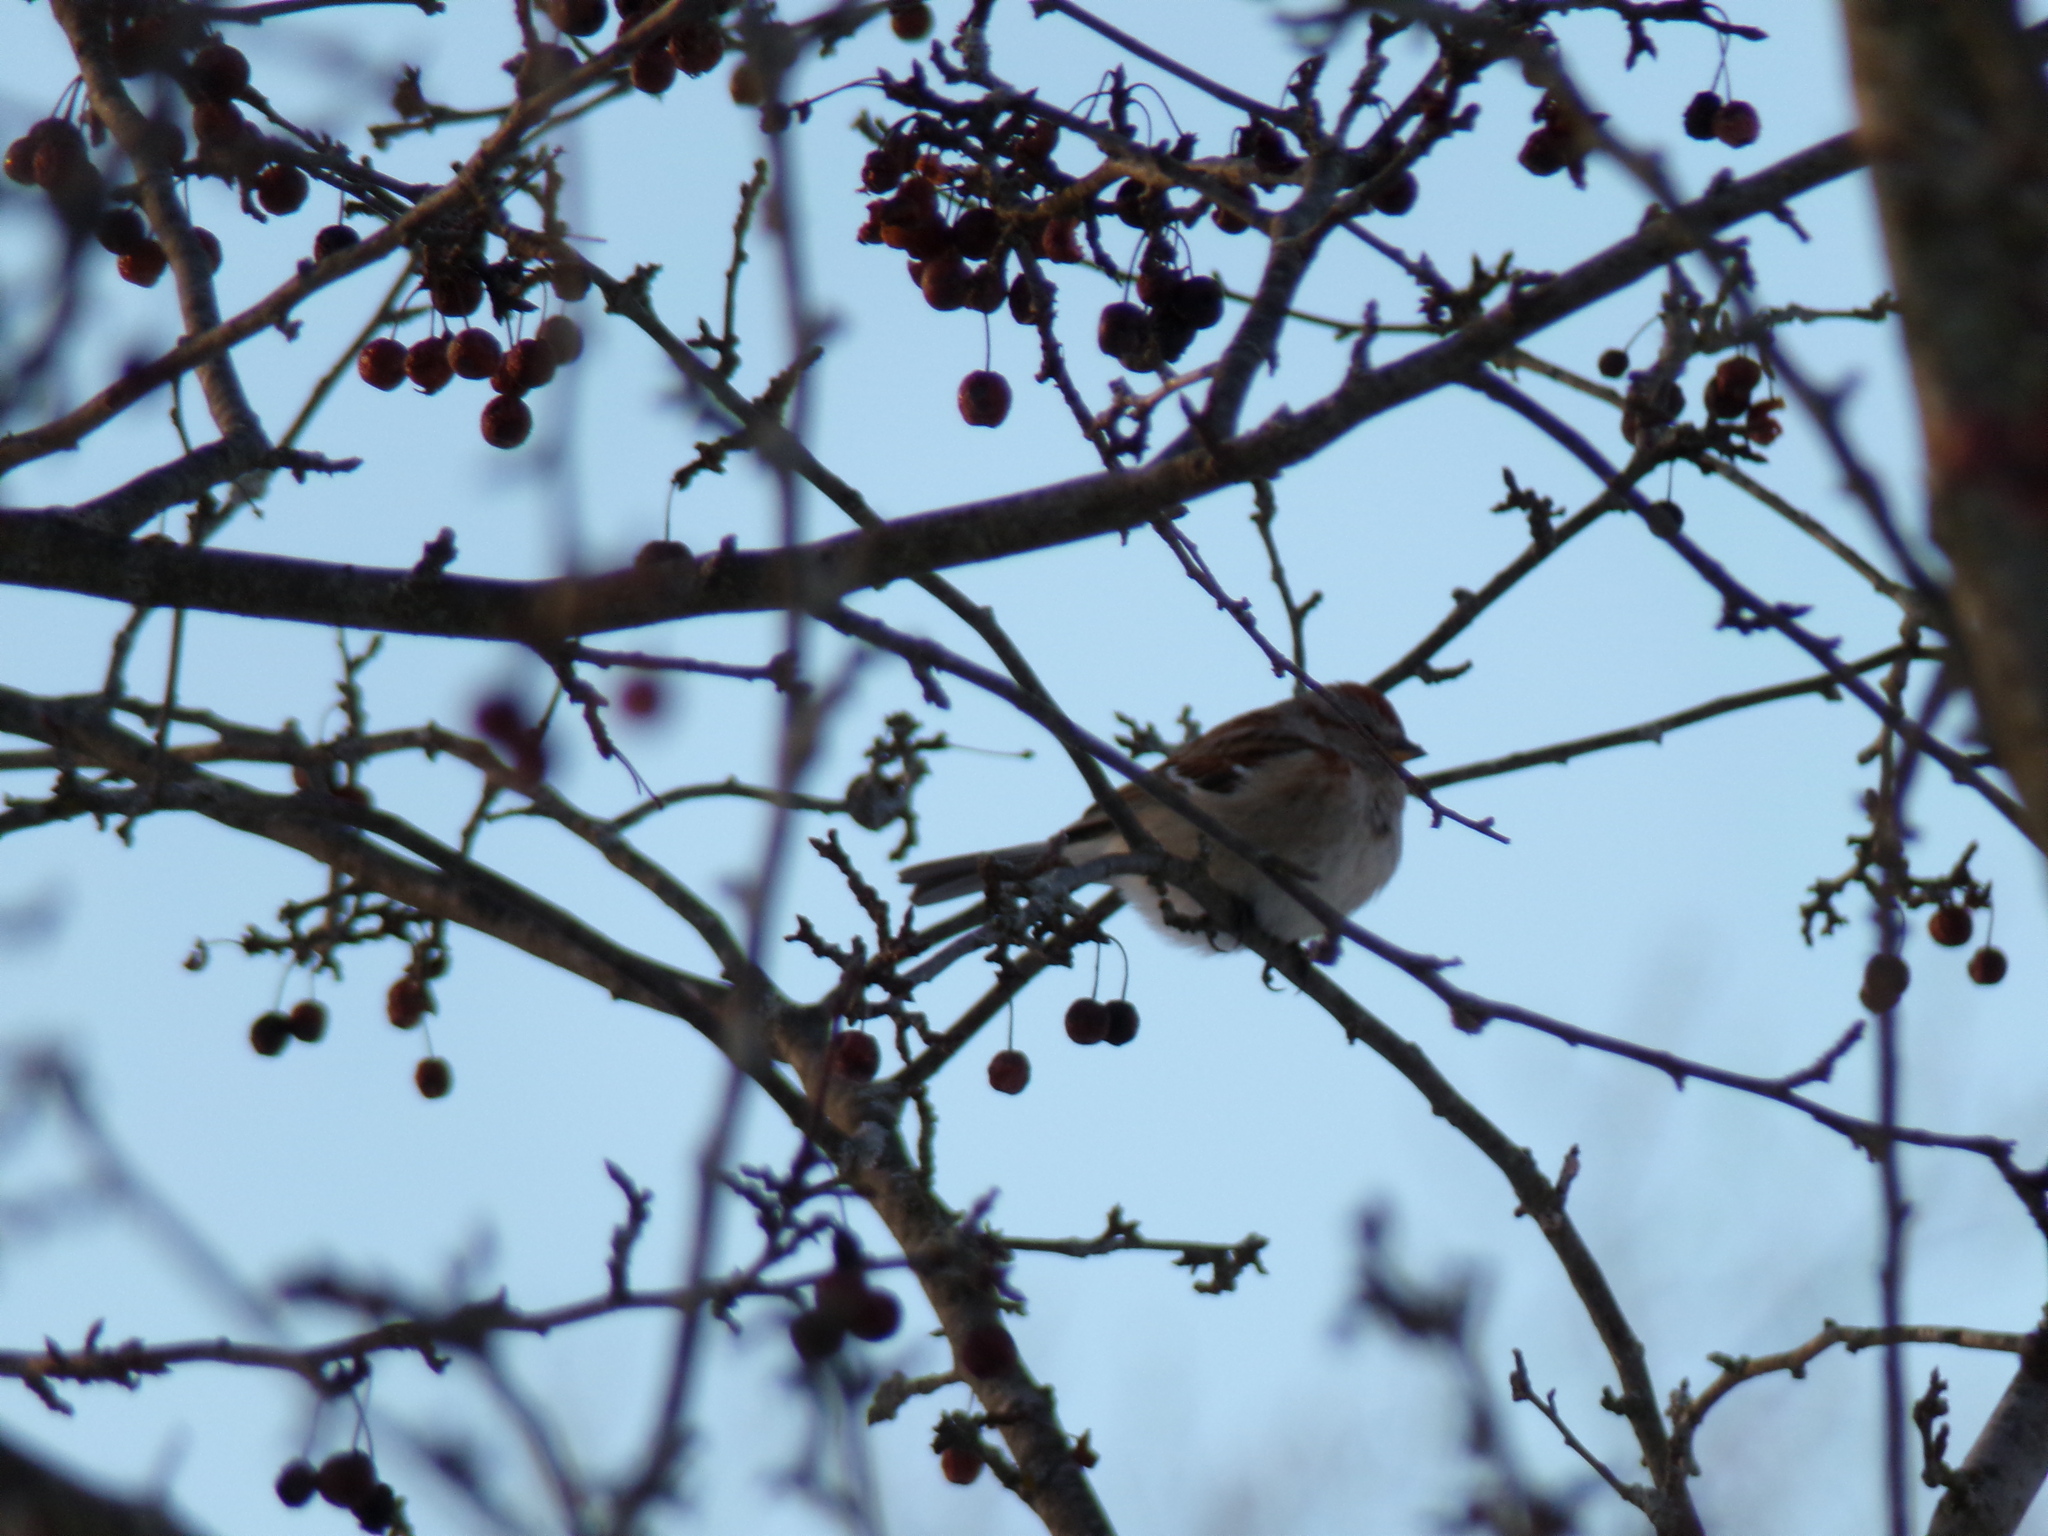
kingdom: Animalia
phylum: Chordata
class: Aves
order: Passeriformes
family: Passerellidae
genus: Spizelloides
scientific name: Spizelloides arborea
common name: American tree sparrow
